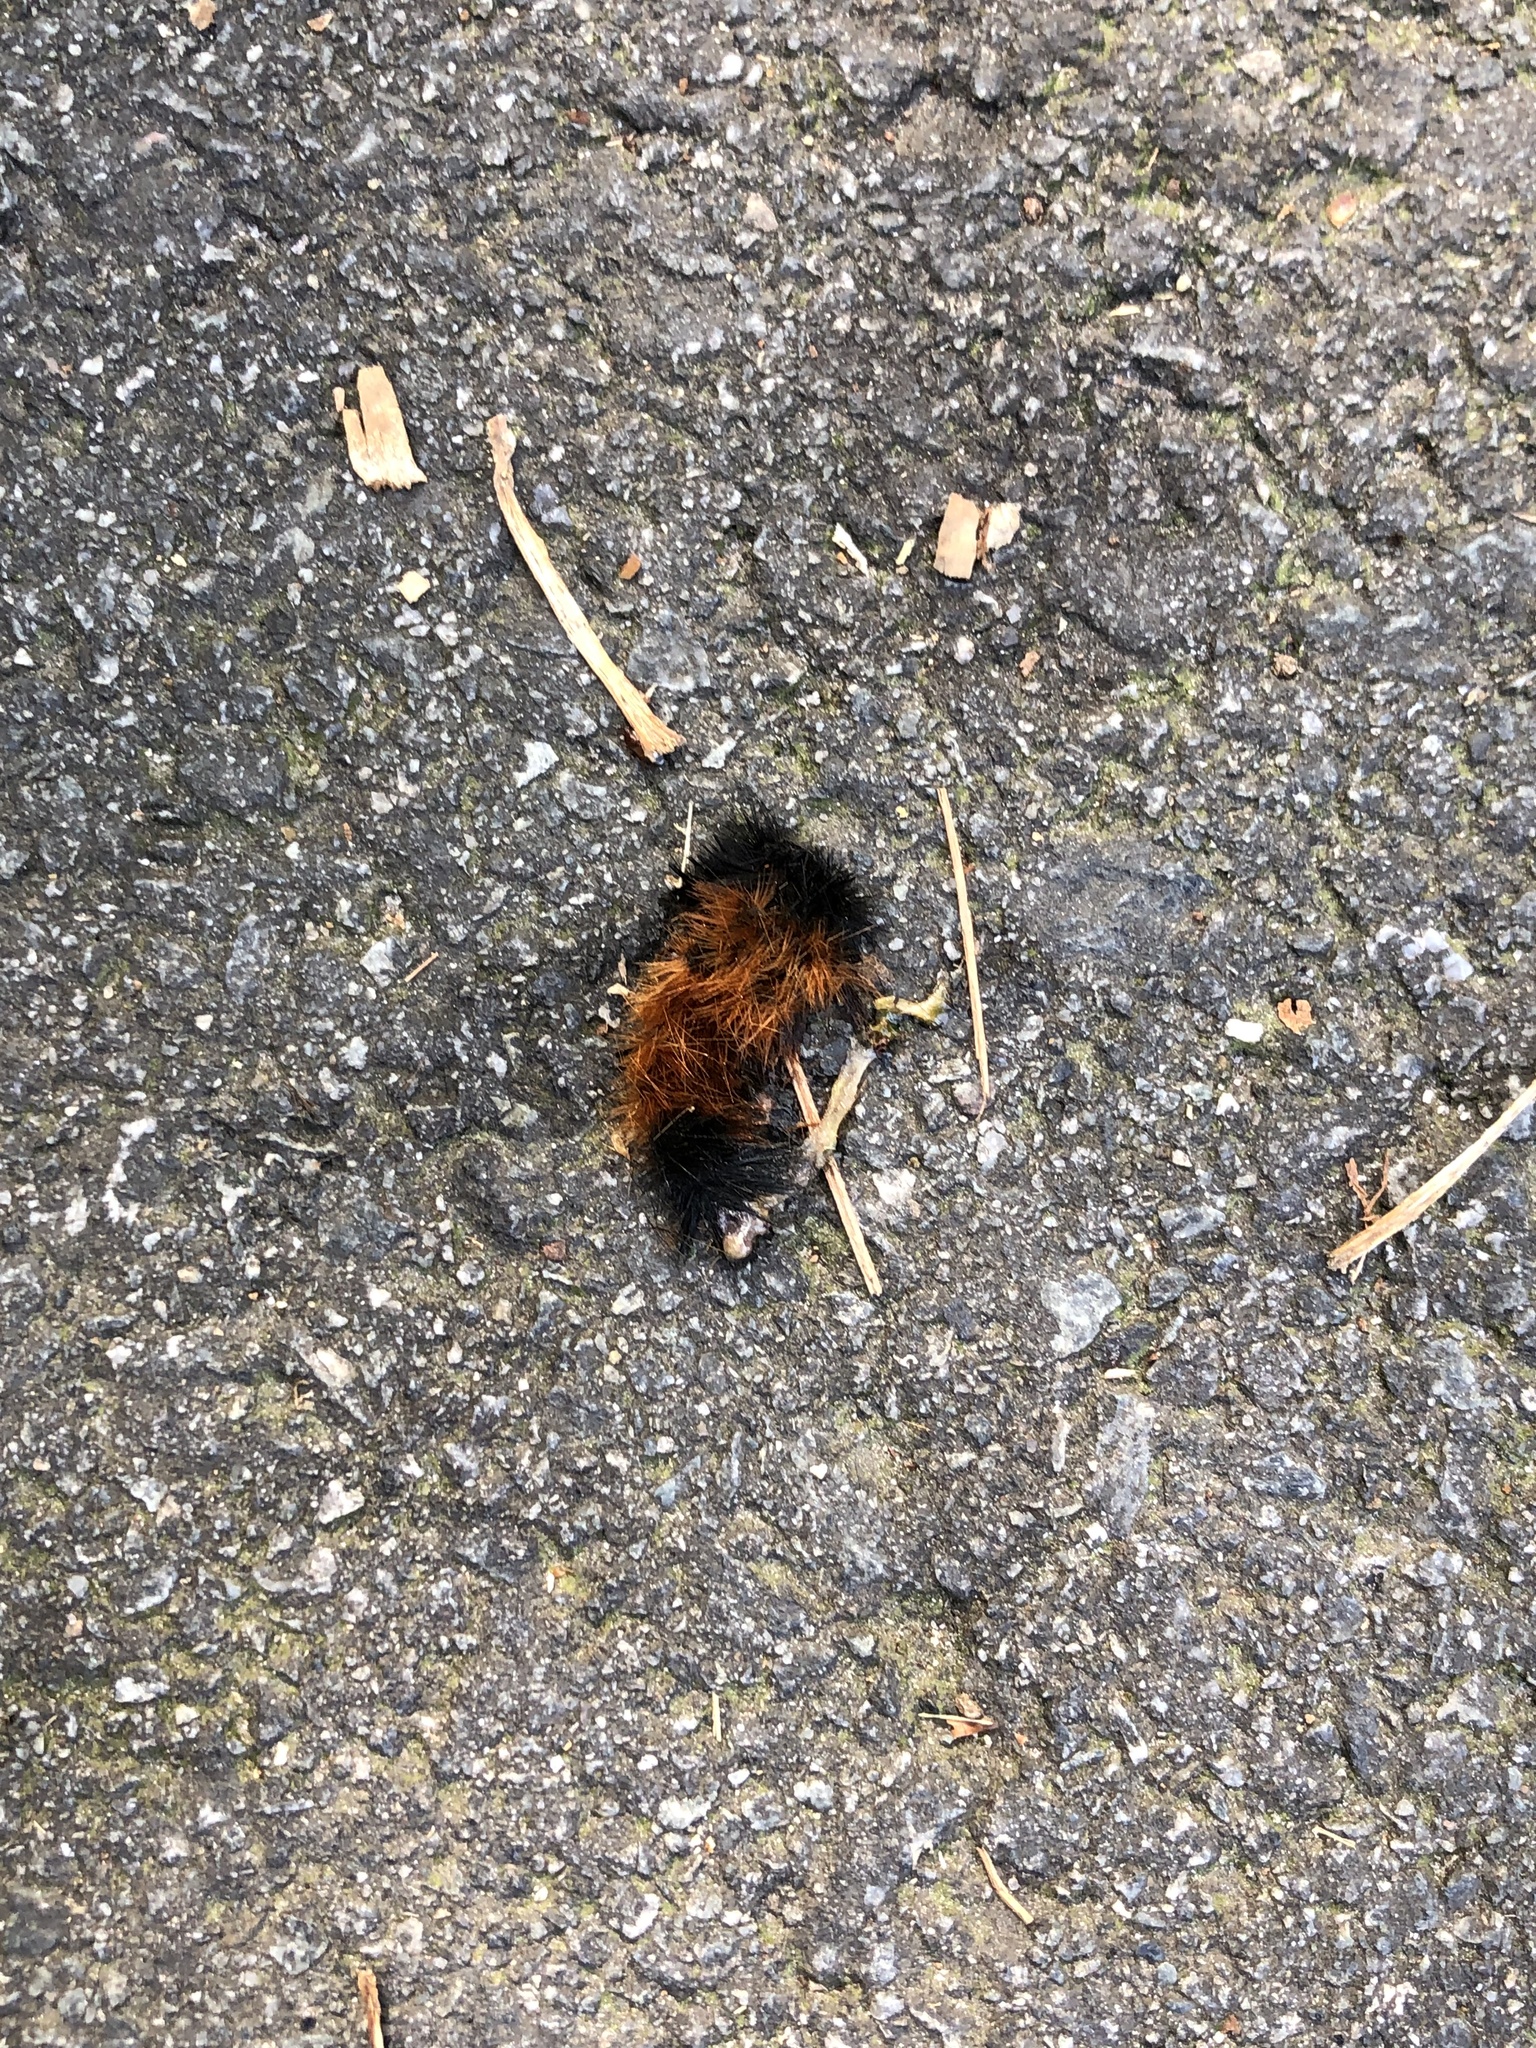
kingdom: Animalia
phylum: Arthropoda
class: Insecta
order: Lepidoptera
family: Erebidae
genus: Pyrrharctia
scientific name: Pyrrharctia isabella
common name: Isabella tiger moth
